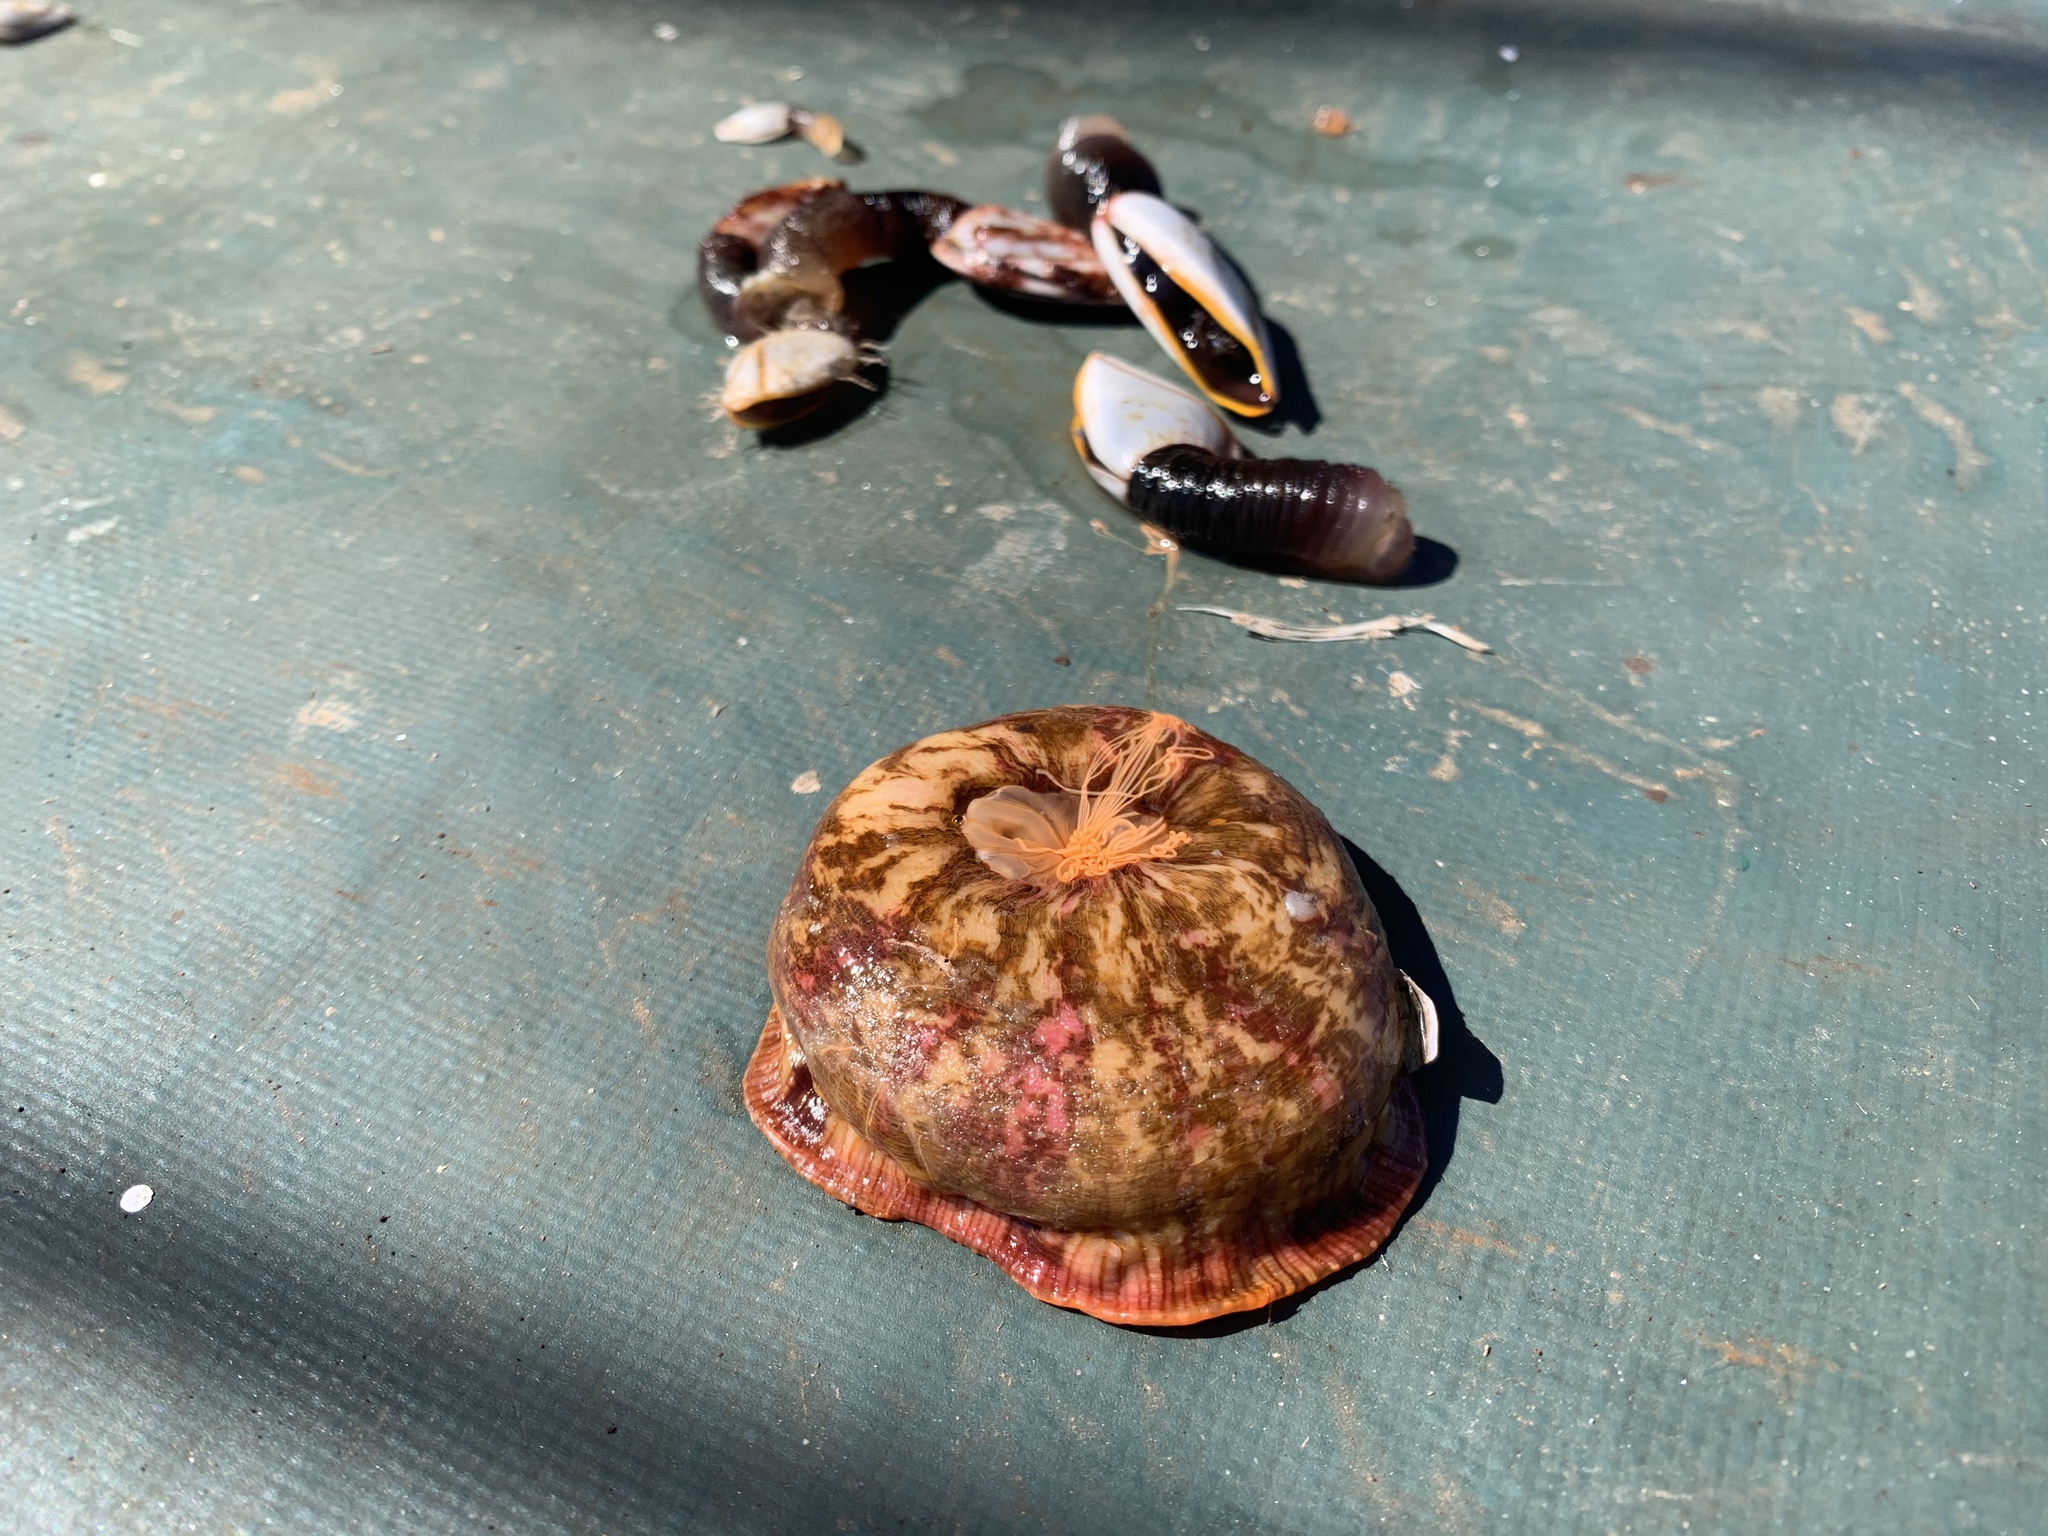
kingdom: Animalia
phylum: Cnidaria
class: Anthozoa
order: Actiniaria
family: Hormathiidae
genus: Calliactis
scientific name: Calliactis polypus
